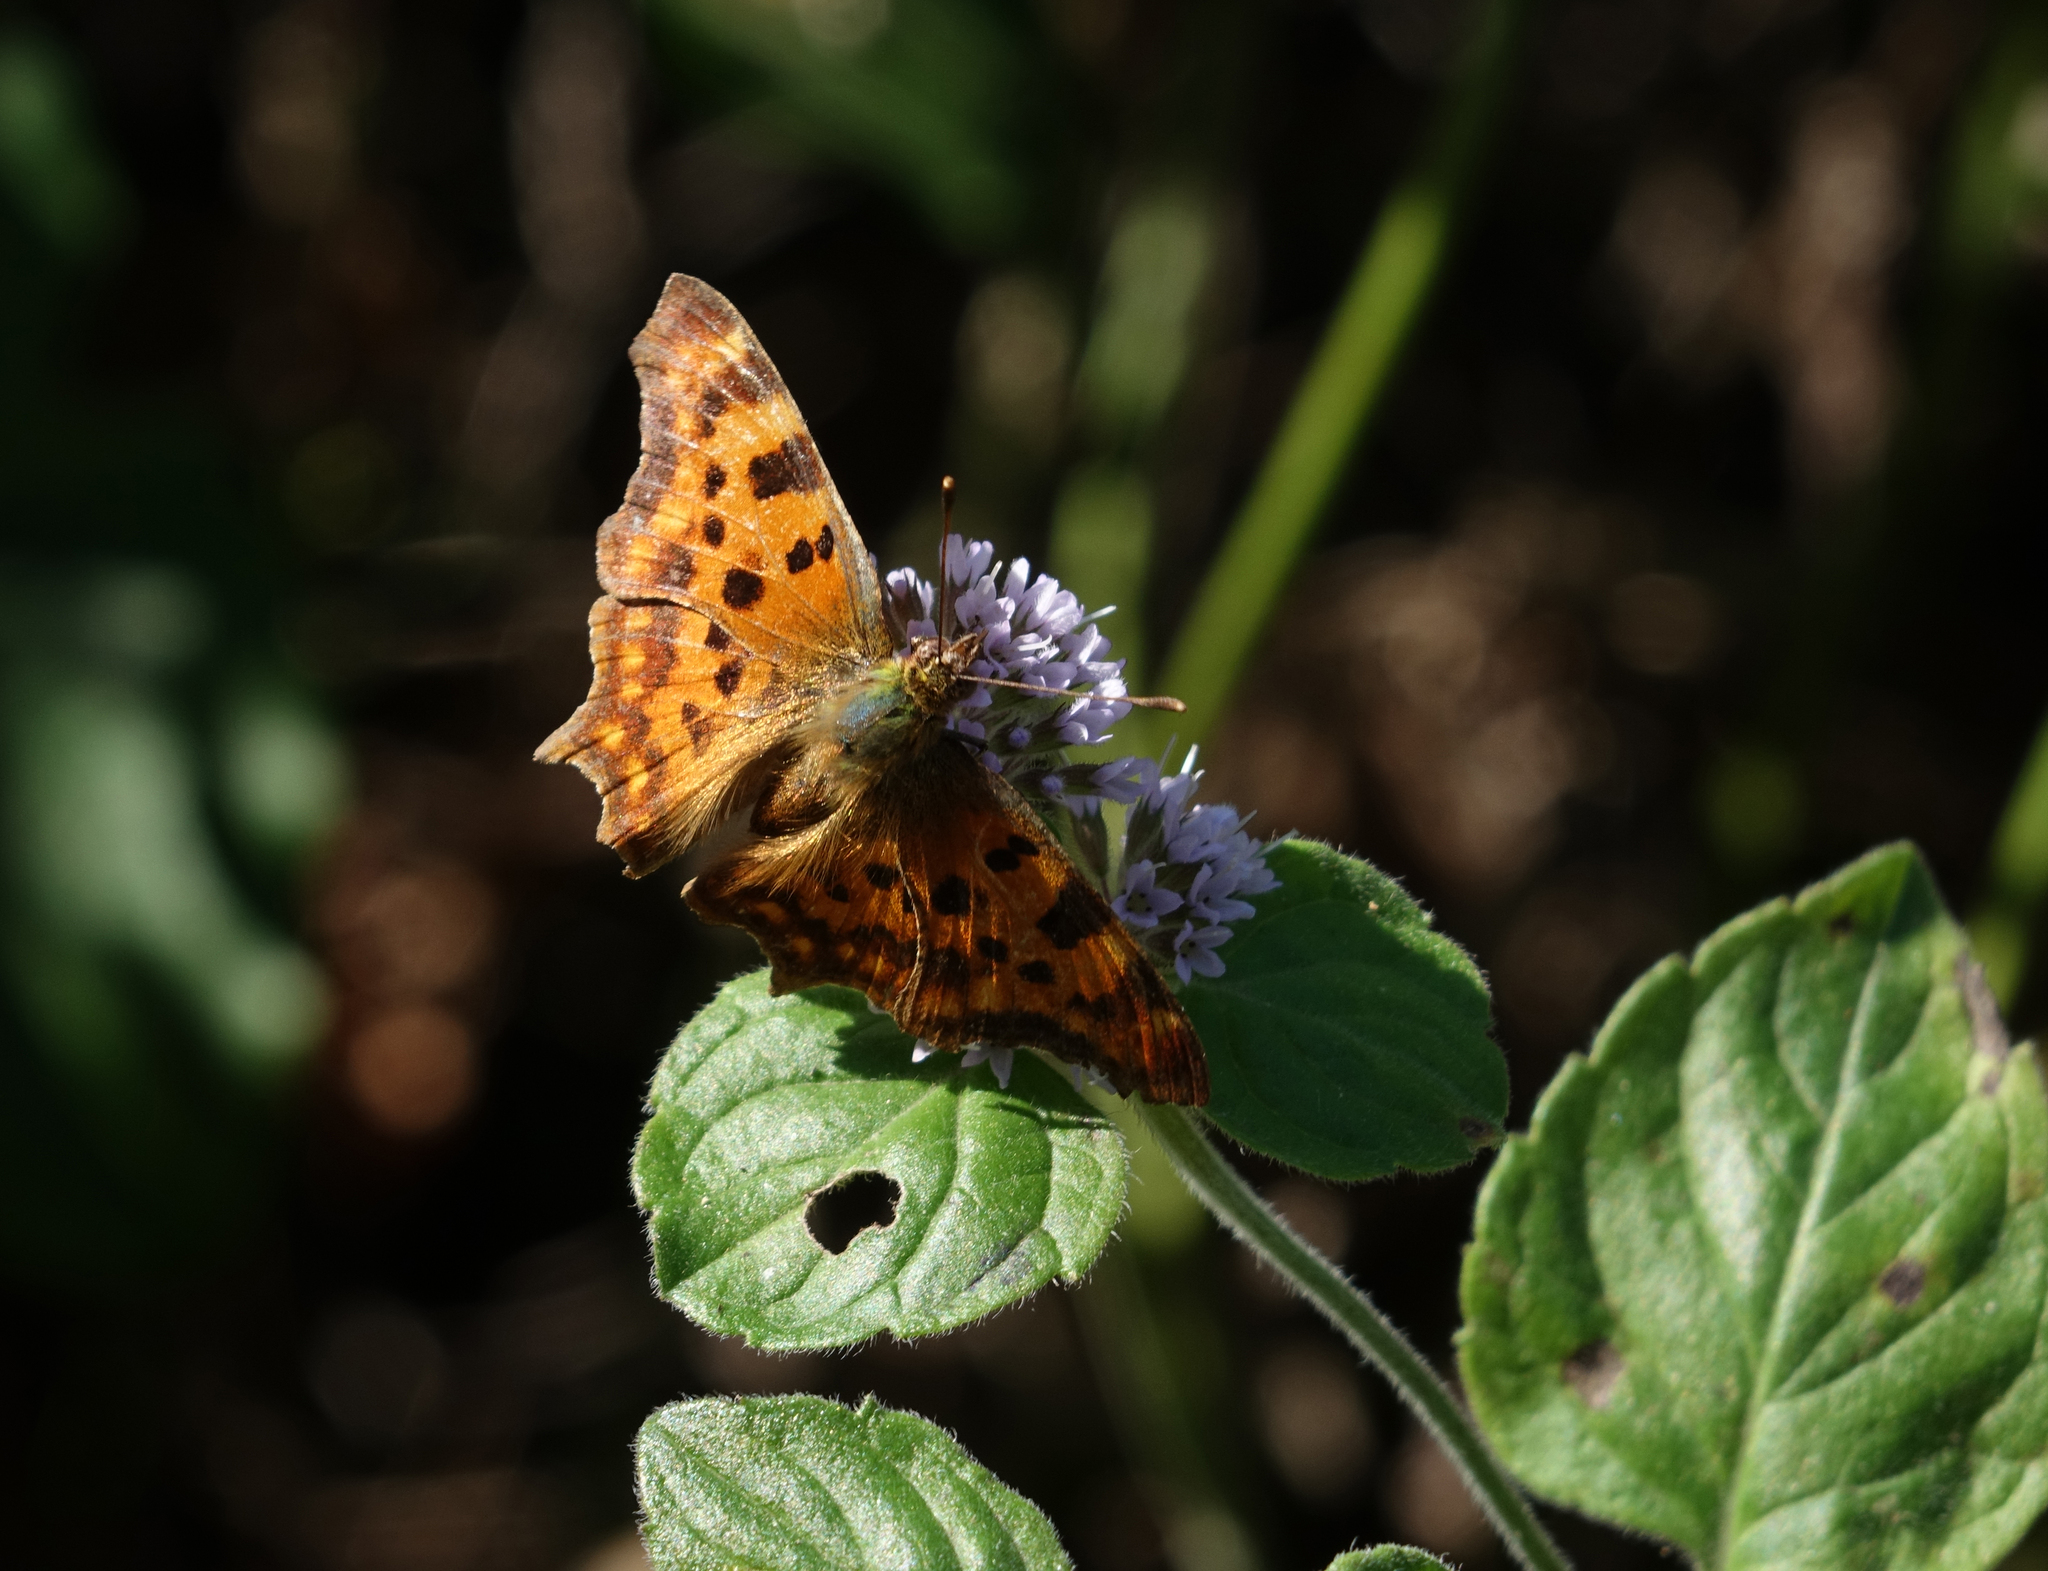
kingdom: Animalia
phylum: Arthropoda
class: Insecta
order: Lepidoptera
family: Nymphalidae
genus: Polygonia
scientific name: Polygonia c-album
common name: Comma
